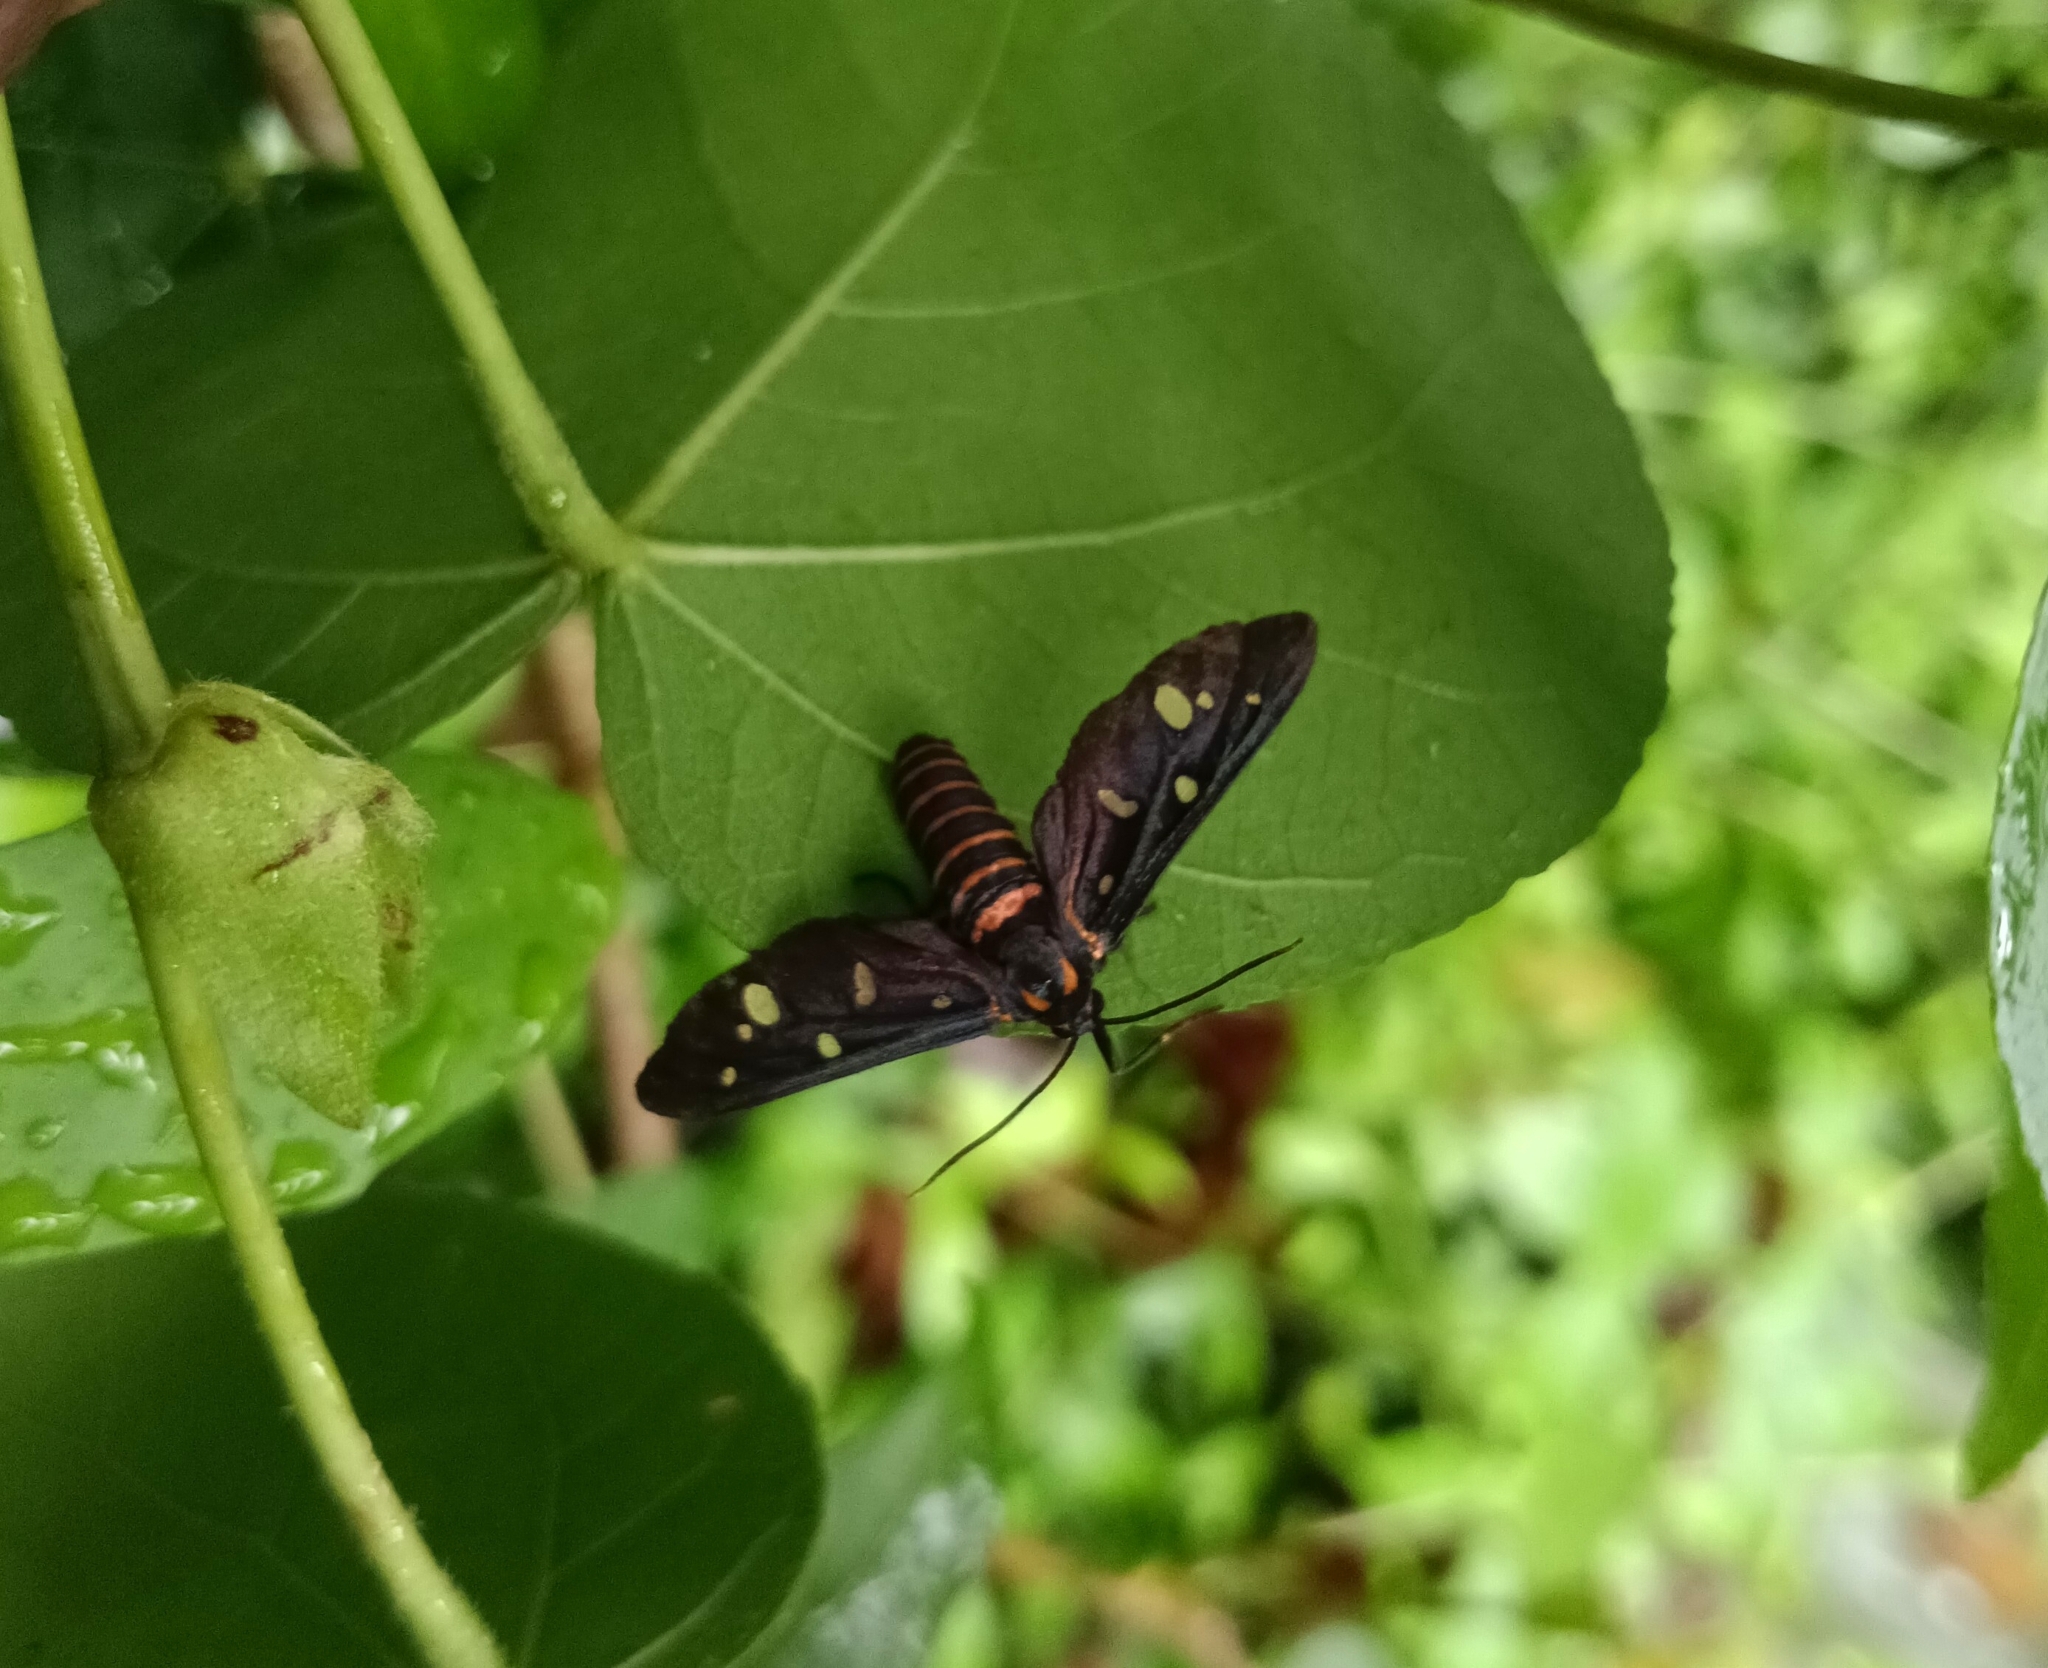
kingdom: Animalia
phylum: Arthropoda
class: Insecta
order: Lepidoptera
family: Erebidae
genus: Amata
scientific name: Amata passalis
